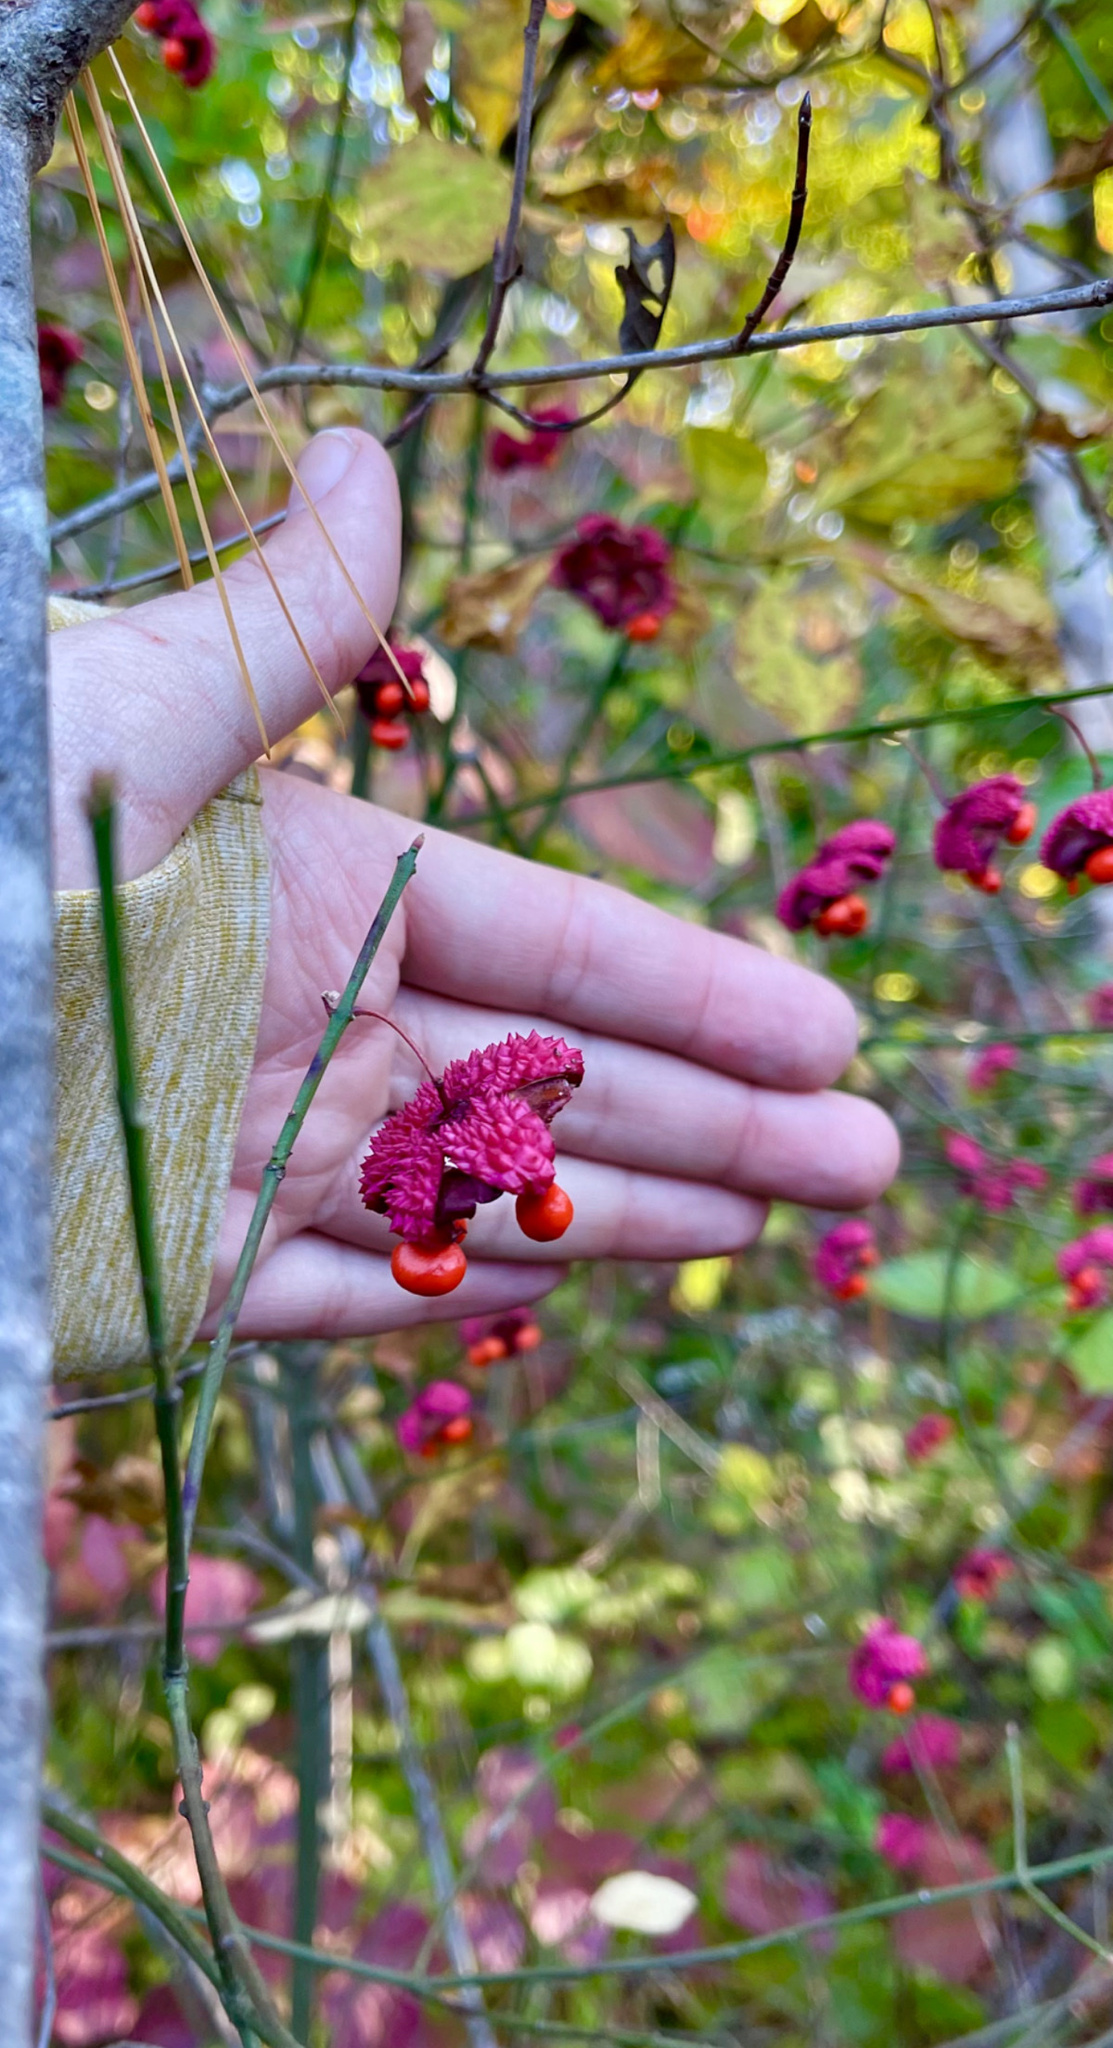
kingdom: Plantae
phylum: Tracheophyta
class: Magnoliopsida
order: Celastrales
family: Celastraceae
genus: Euonymus
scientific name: Euonymus americanus
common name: Bursting-heart
